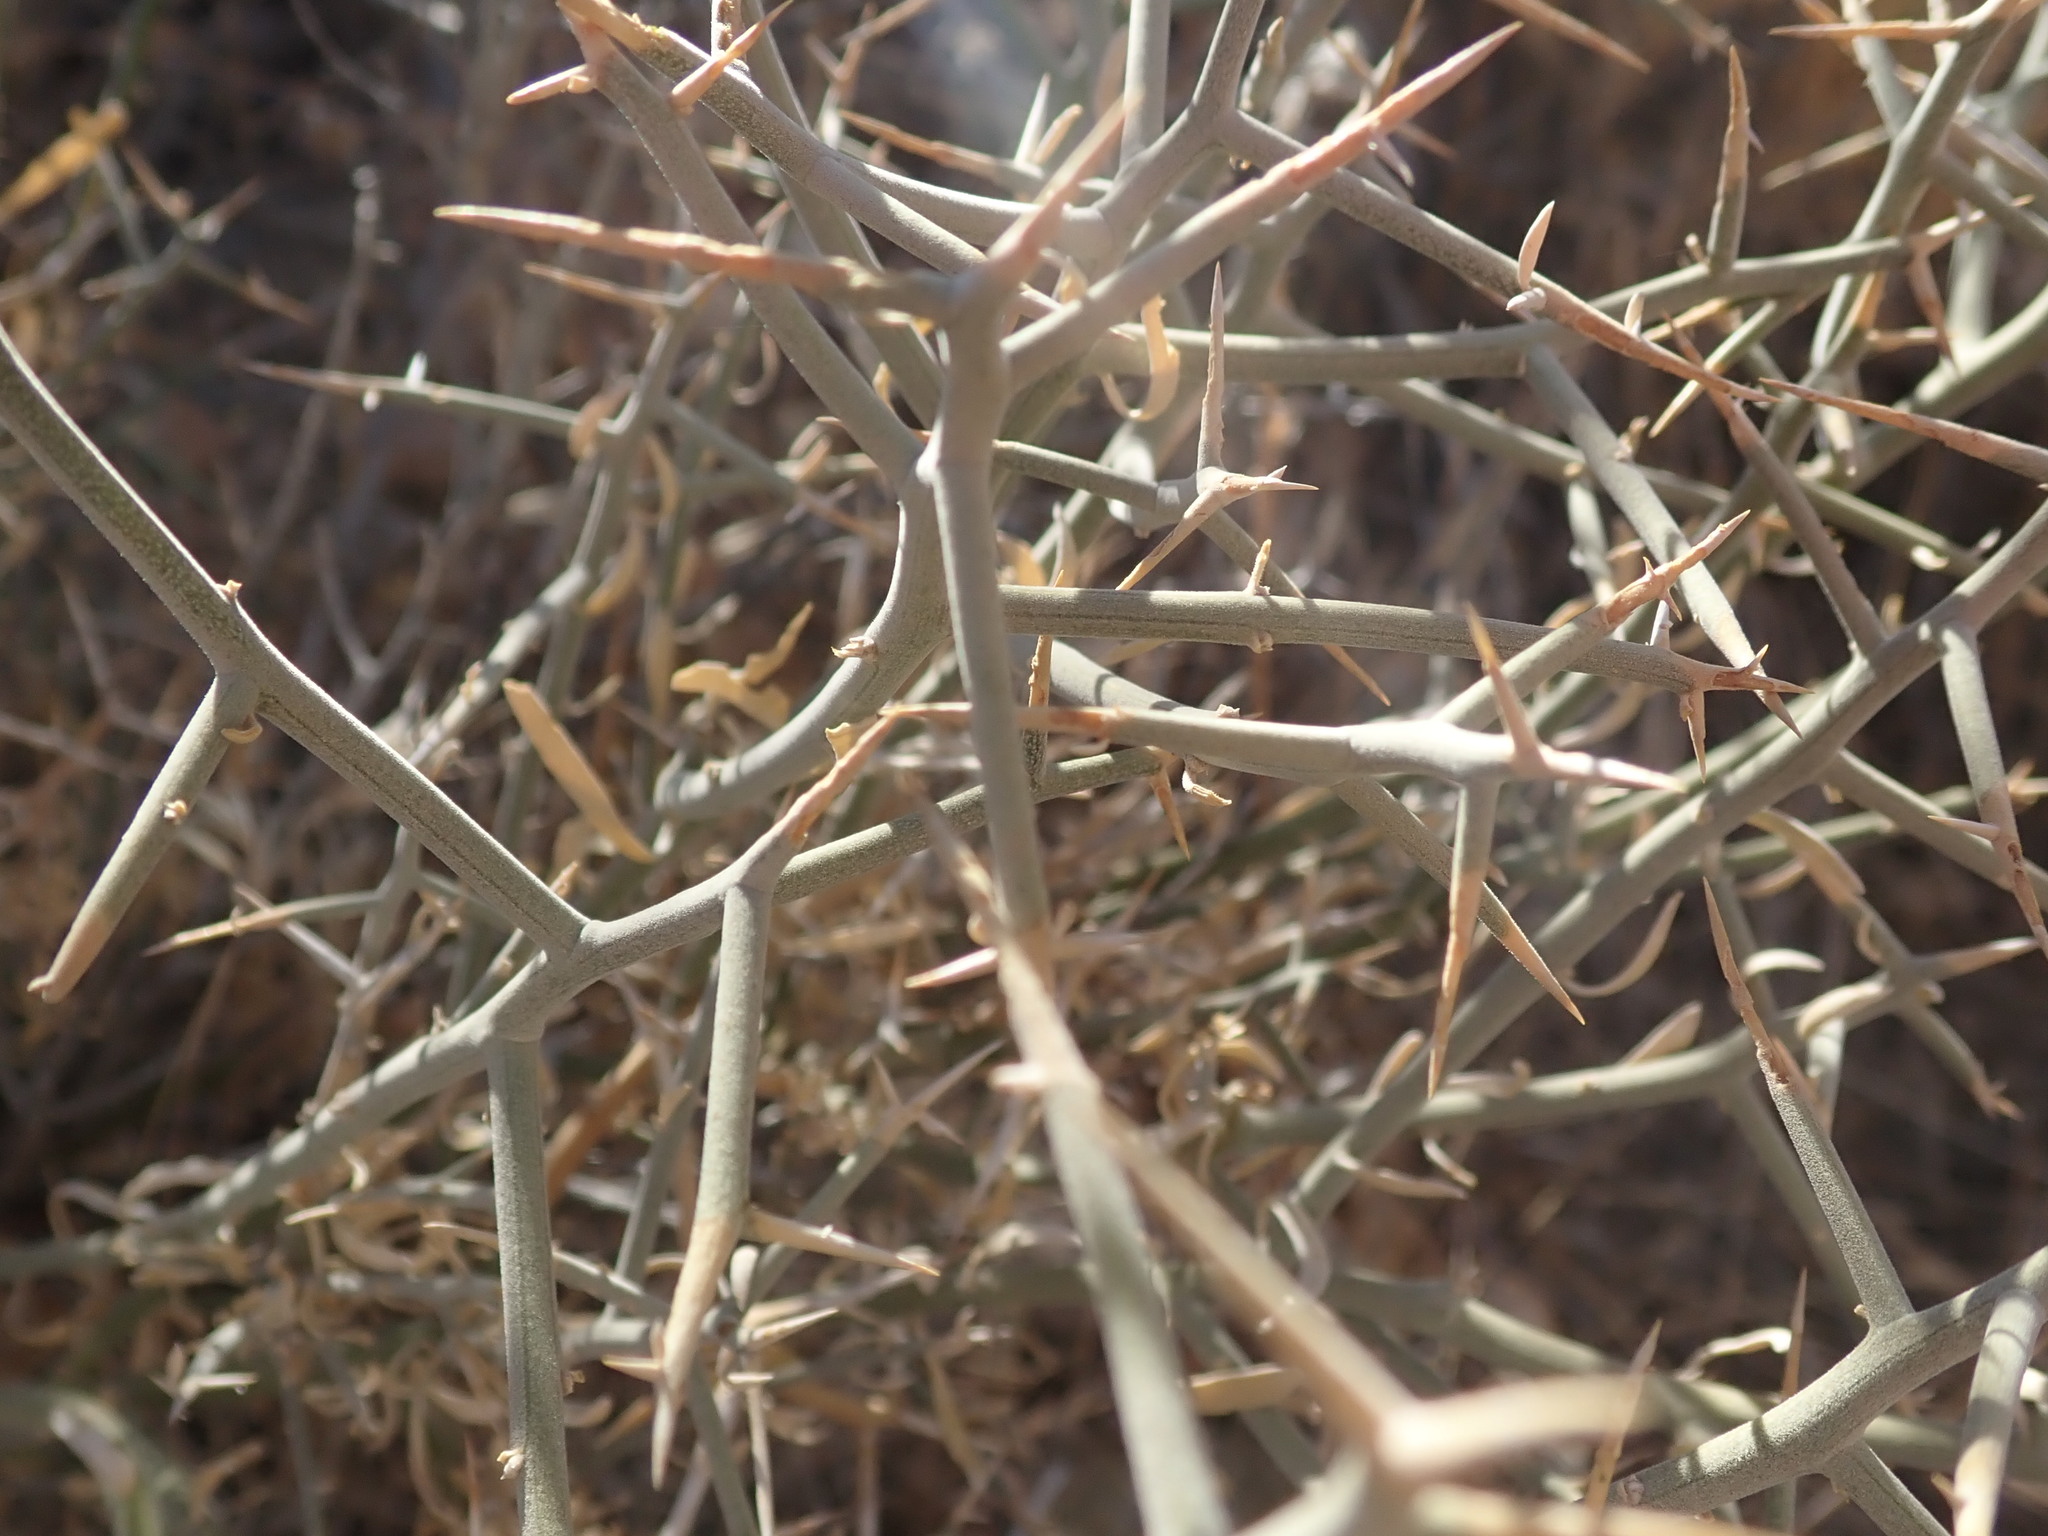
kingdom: Plantae
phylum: Tracheophyta
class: Magnoliopsida
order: Lamiales
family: Oleaceae
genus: Menodora
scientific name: Menodora spinescens
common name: Spiny menodora
